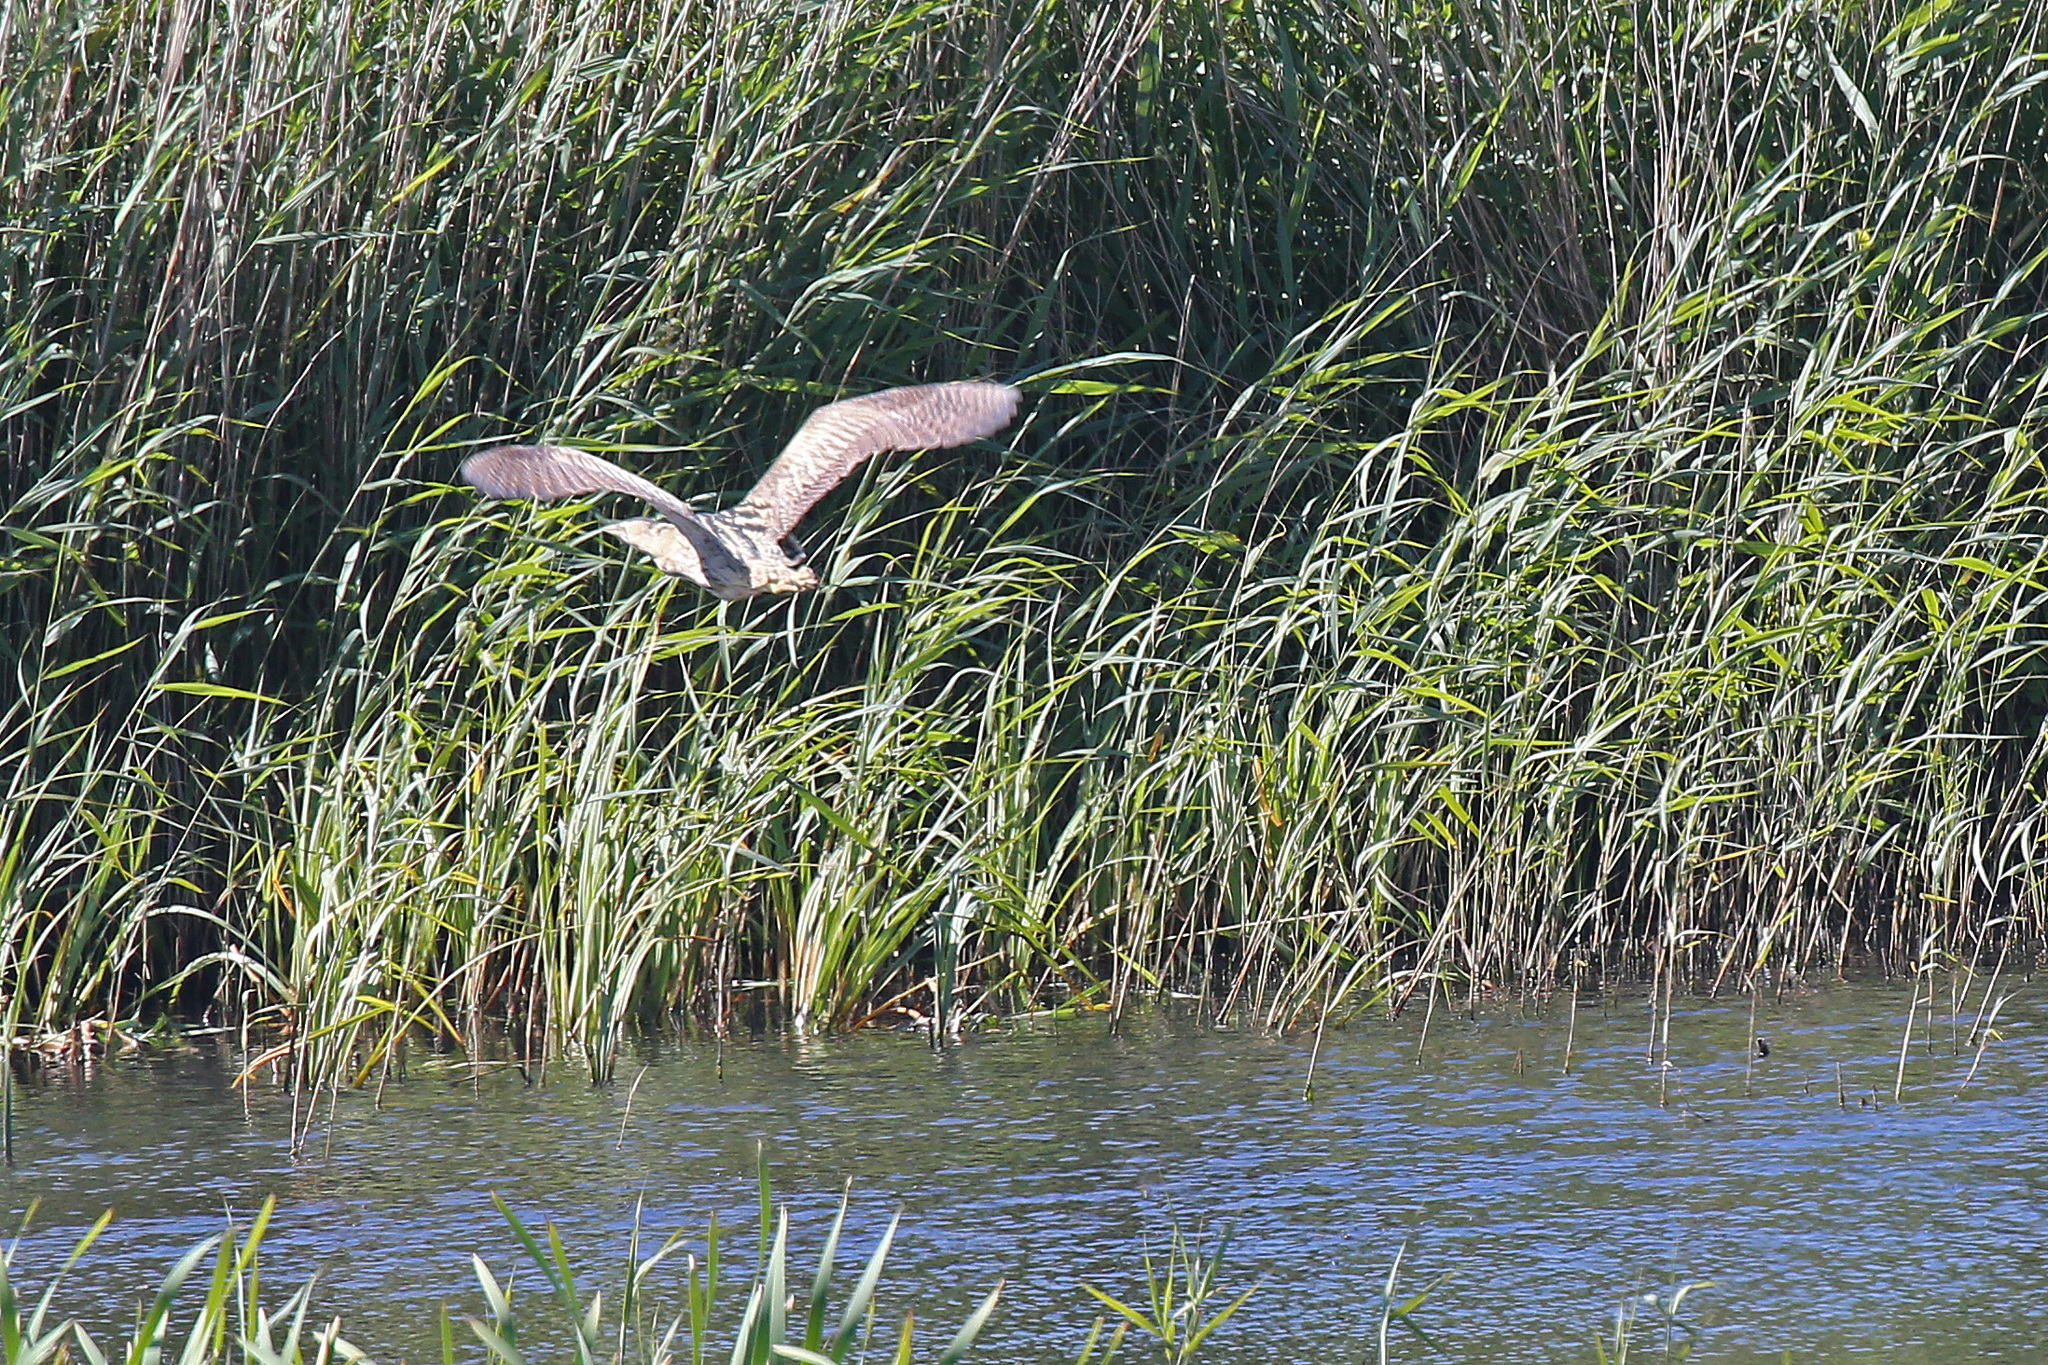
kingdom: Animalia
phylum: Chordata
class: Aves
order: Pelecaniformes
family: Ardeidae
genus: Botaurus
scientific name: Botaurus stellaris
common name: Eurasian bittern
